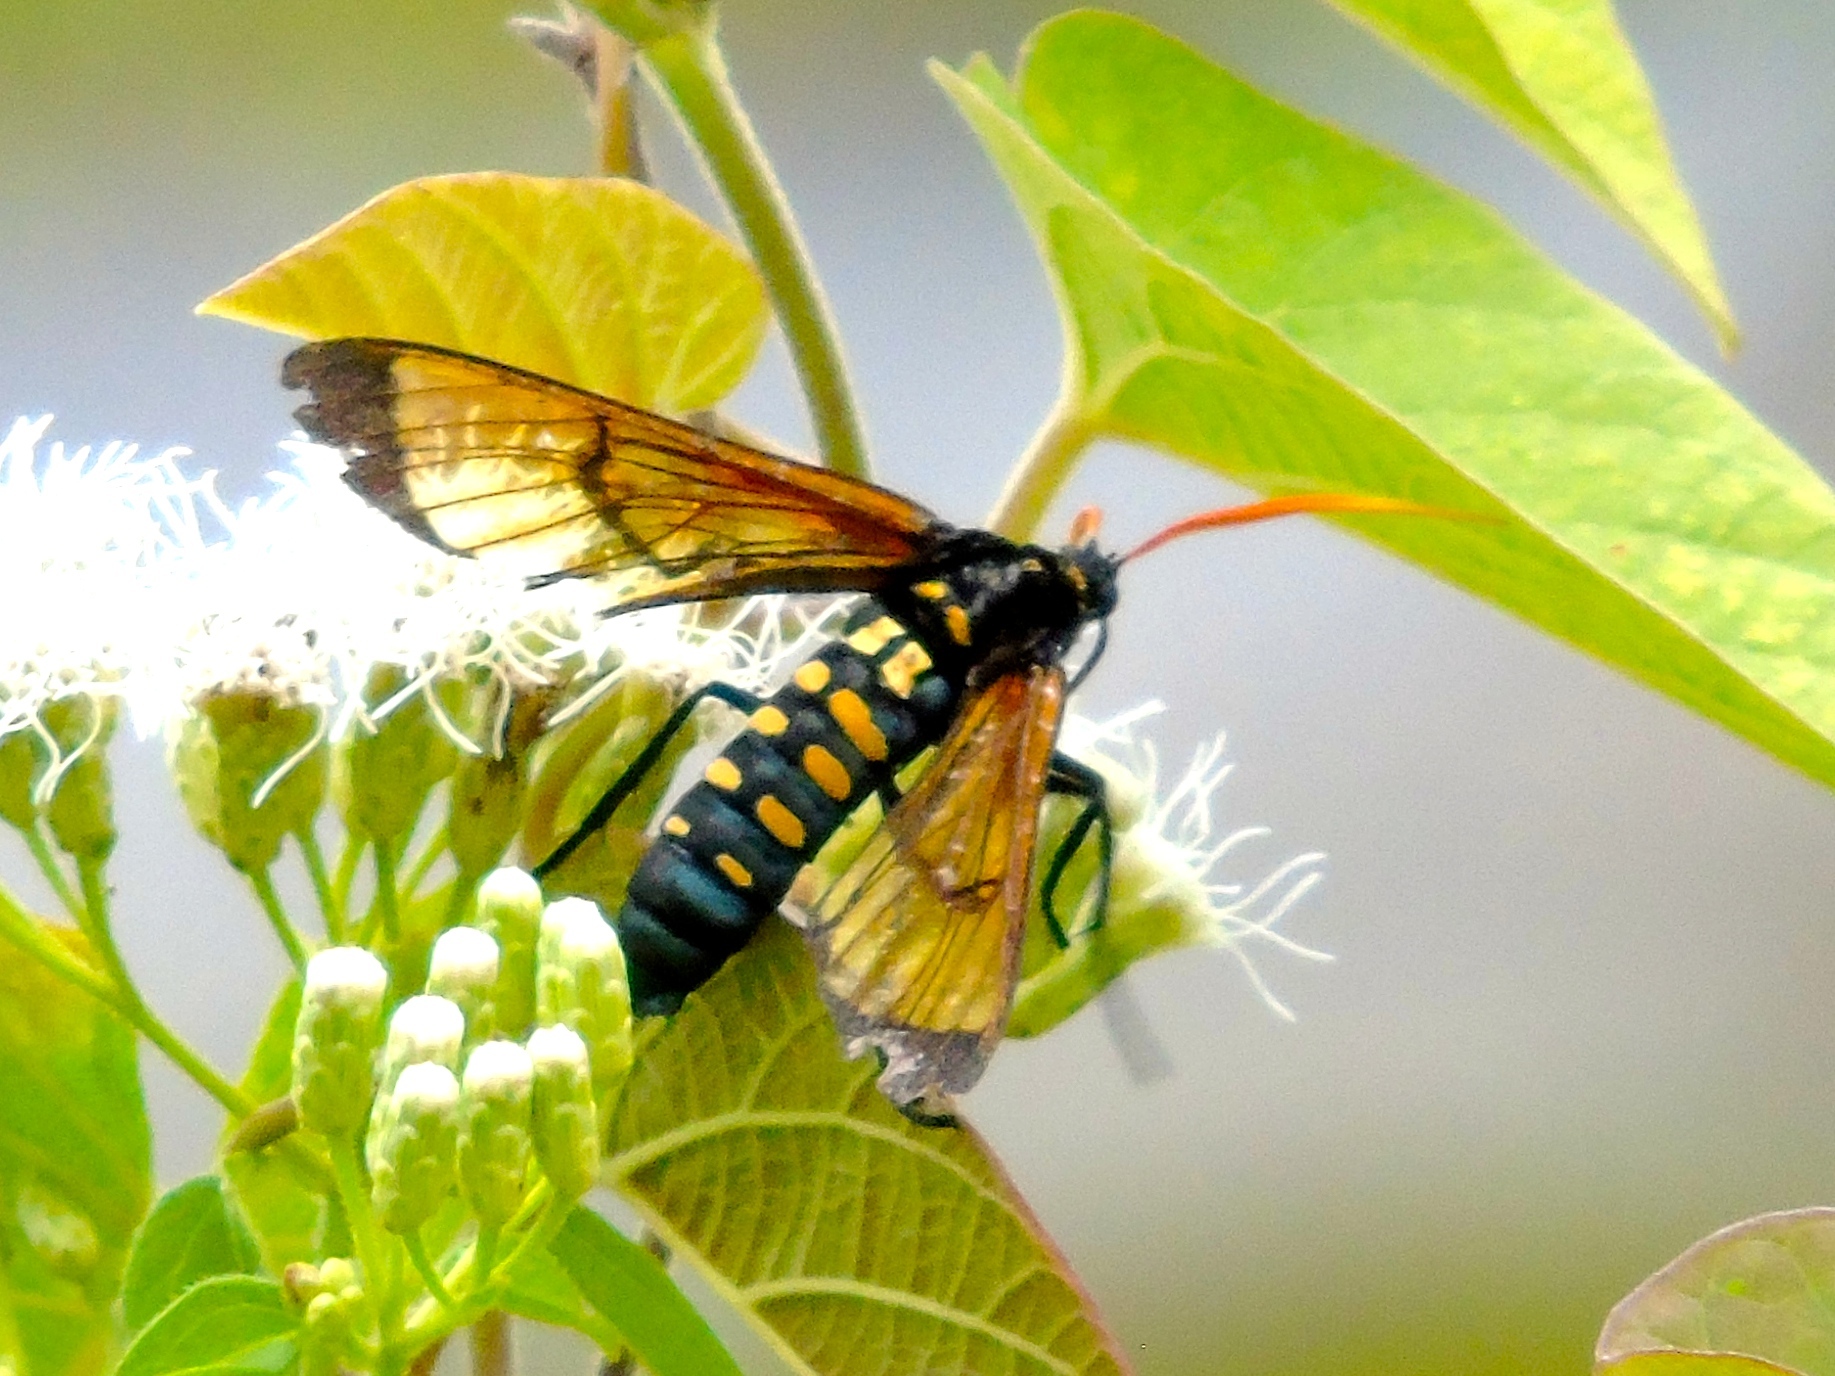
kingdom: Animalia
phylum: Arthropoda
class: Insecta
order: Lepidoptera
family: Erebidae
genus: Isanthrene
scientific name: Isanthrene perboscii
